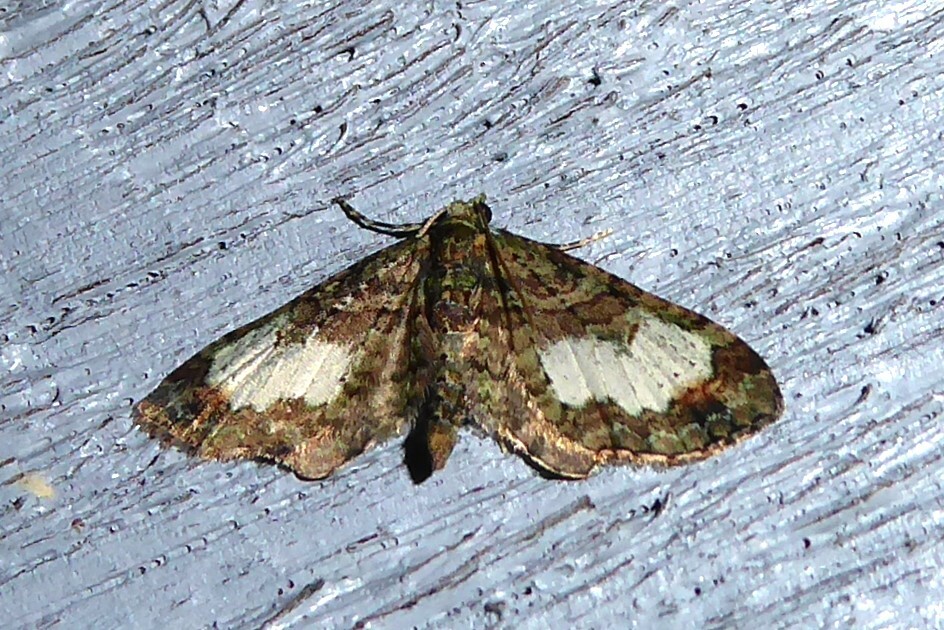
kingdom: Animalia
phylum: Arthropoda
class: Insecta
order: Lepidoptera
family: Geometridae
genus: Idaea
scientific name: Idaea mutanda
